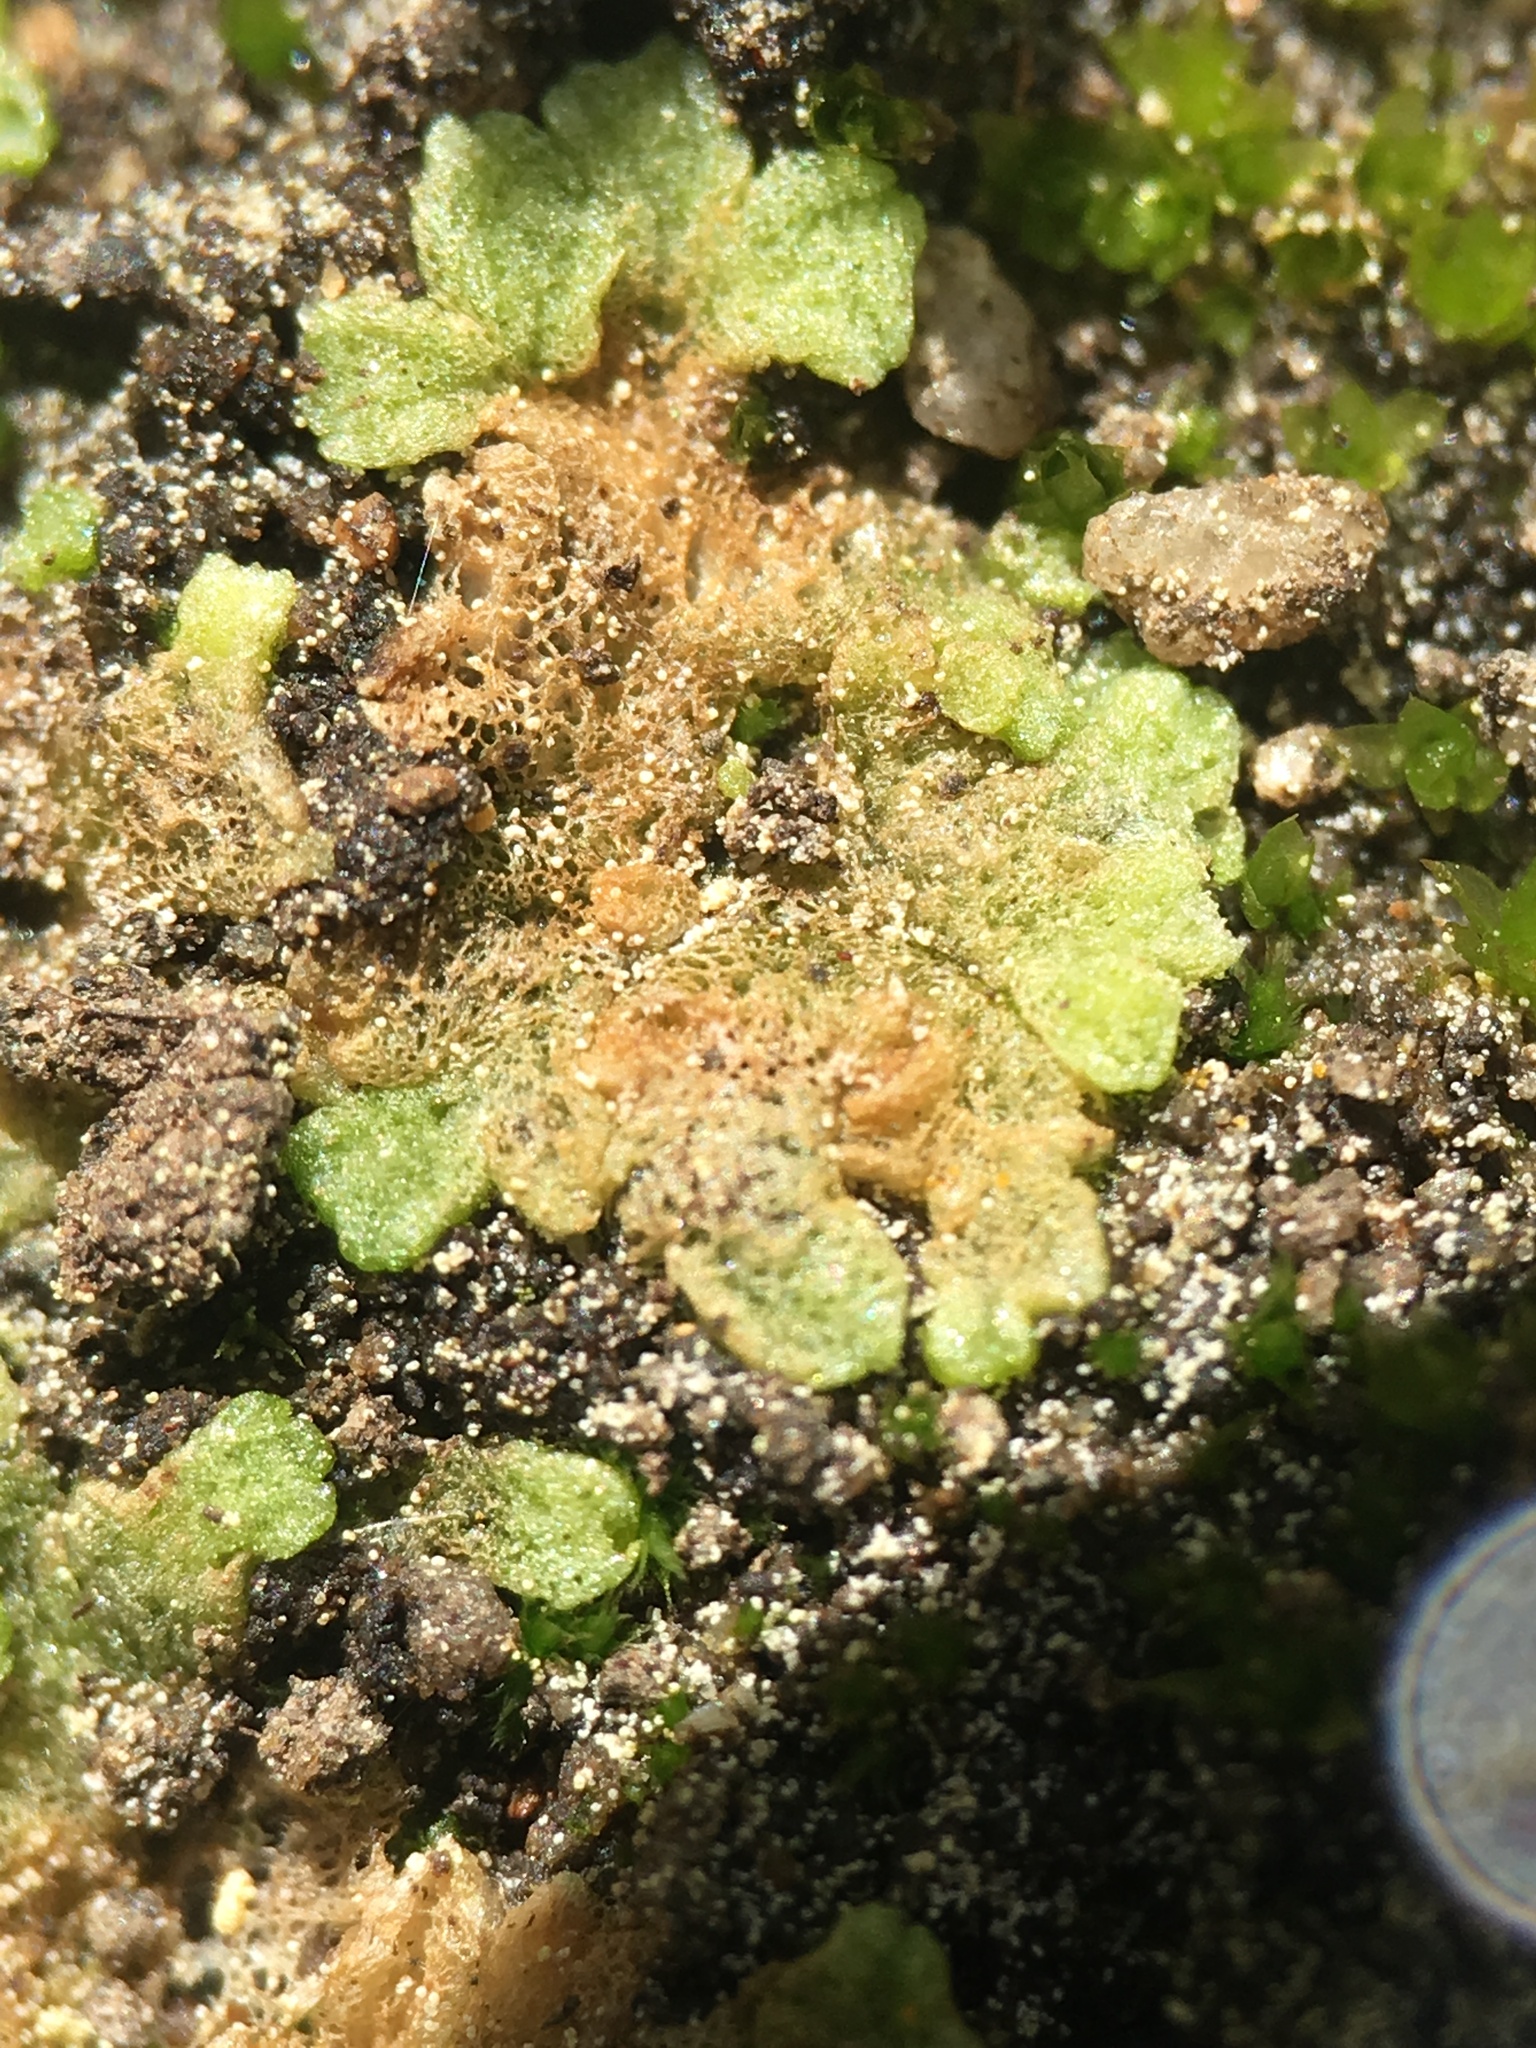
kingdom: Plantae
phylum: Marchantiophyta
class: Marchantiopsida
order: Marchantiales
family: Ricciaceae
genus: Riccia
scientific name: Riccia cavernosa
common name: Cavernous crystalwort
